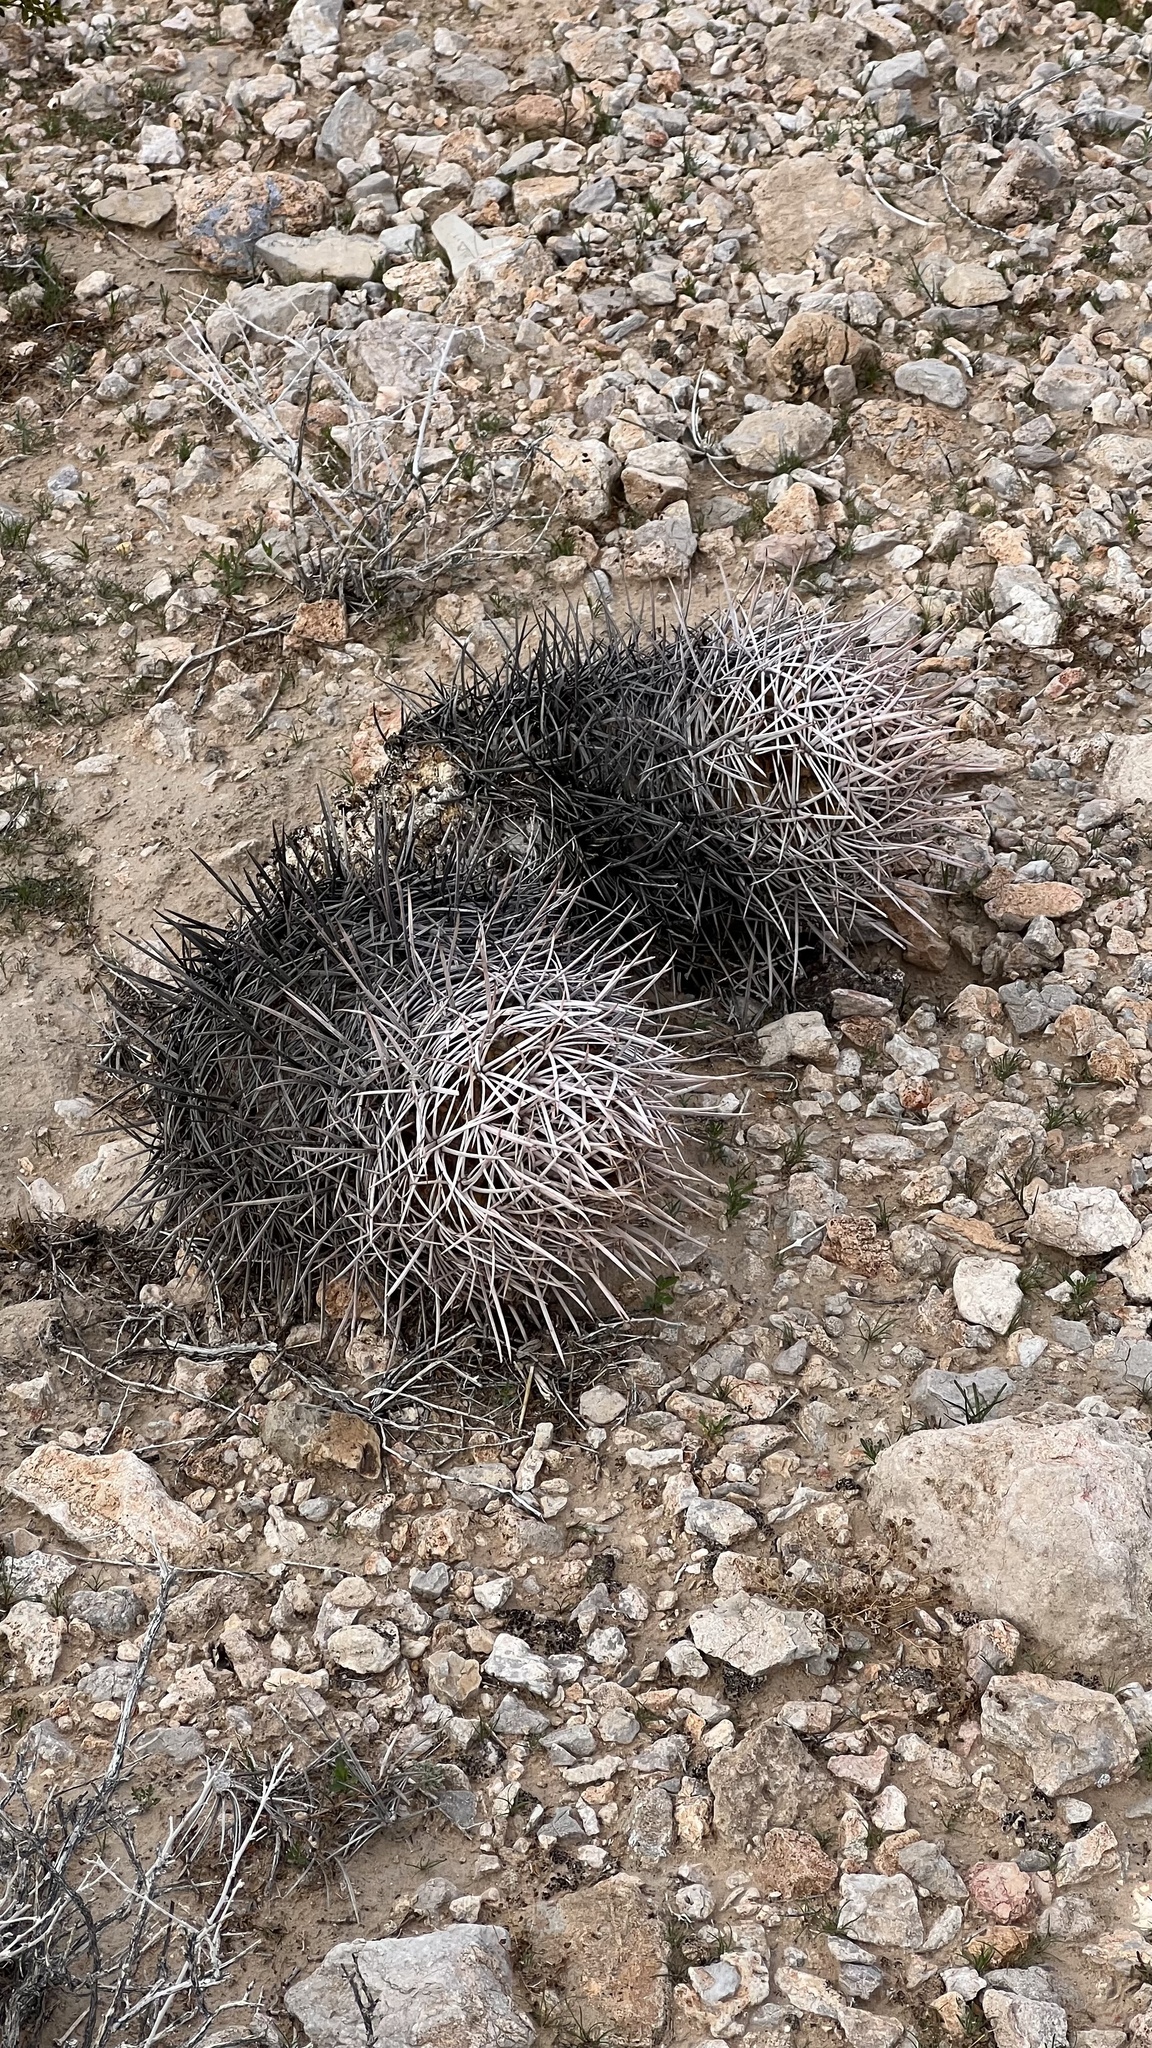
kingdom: Plantae
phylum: Tracheophyta
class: Magnoliopsida
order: Caryophyllales
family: Cactaceae
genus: Echinocactus
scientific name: Echinocactus polycephalus
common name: Cottontop cactus
